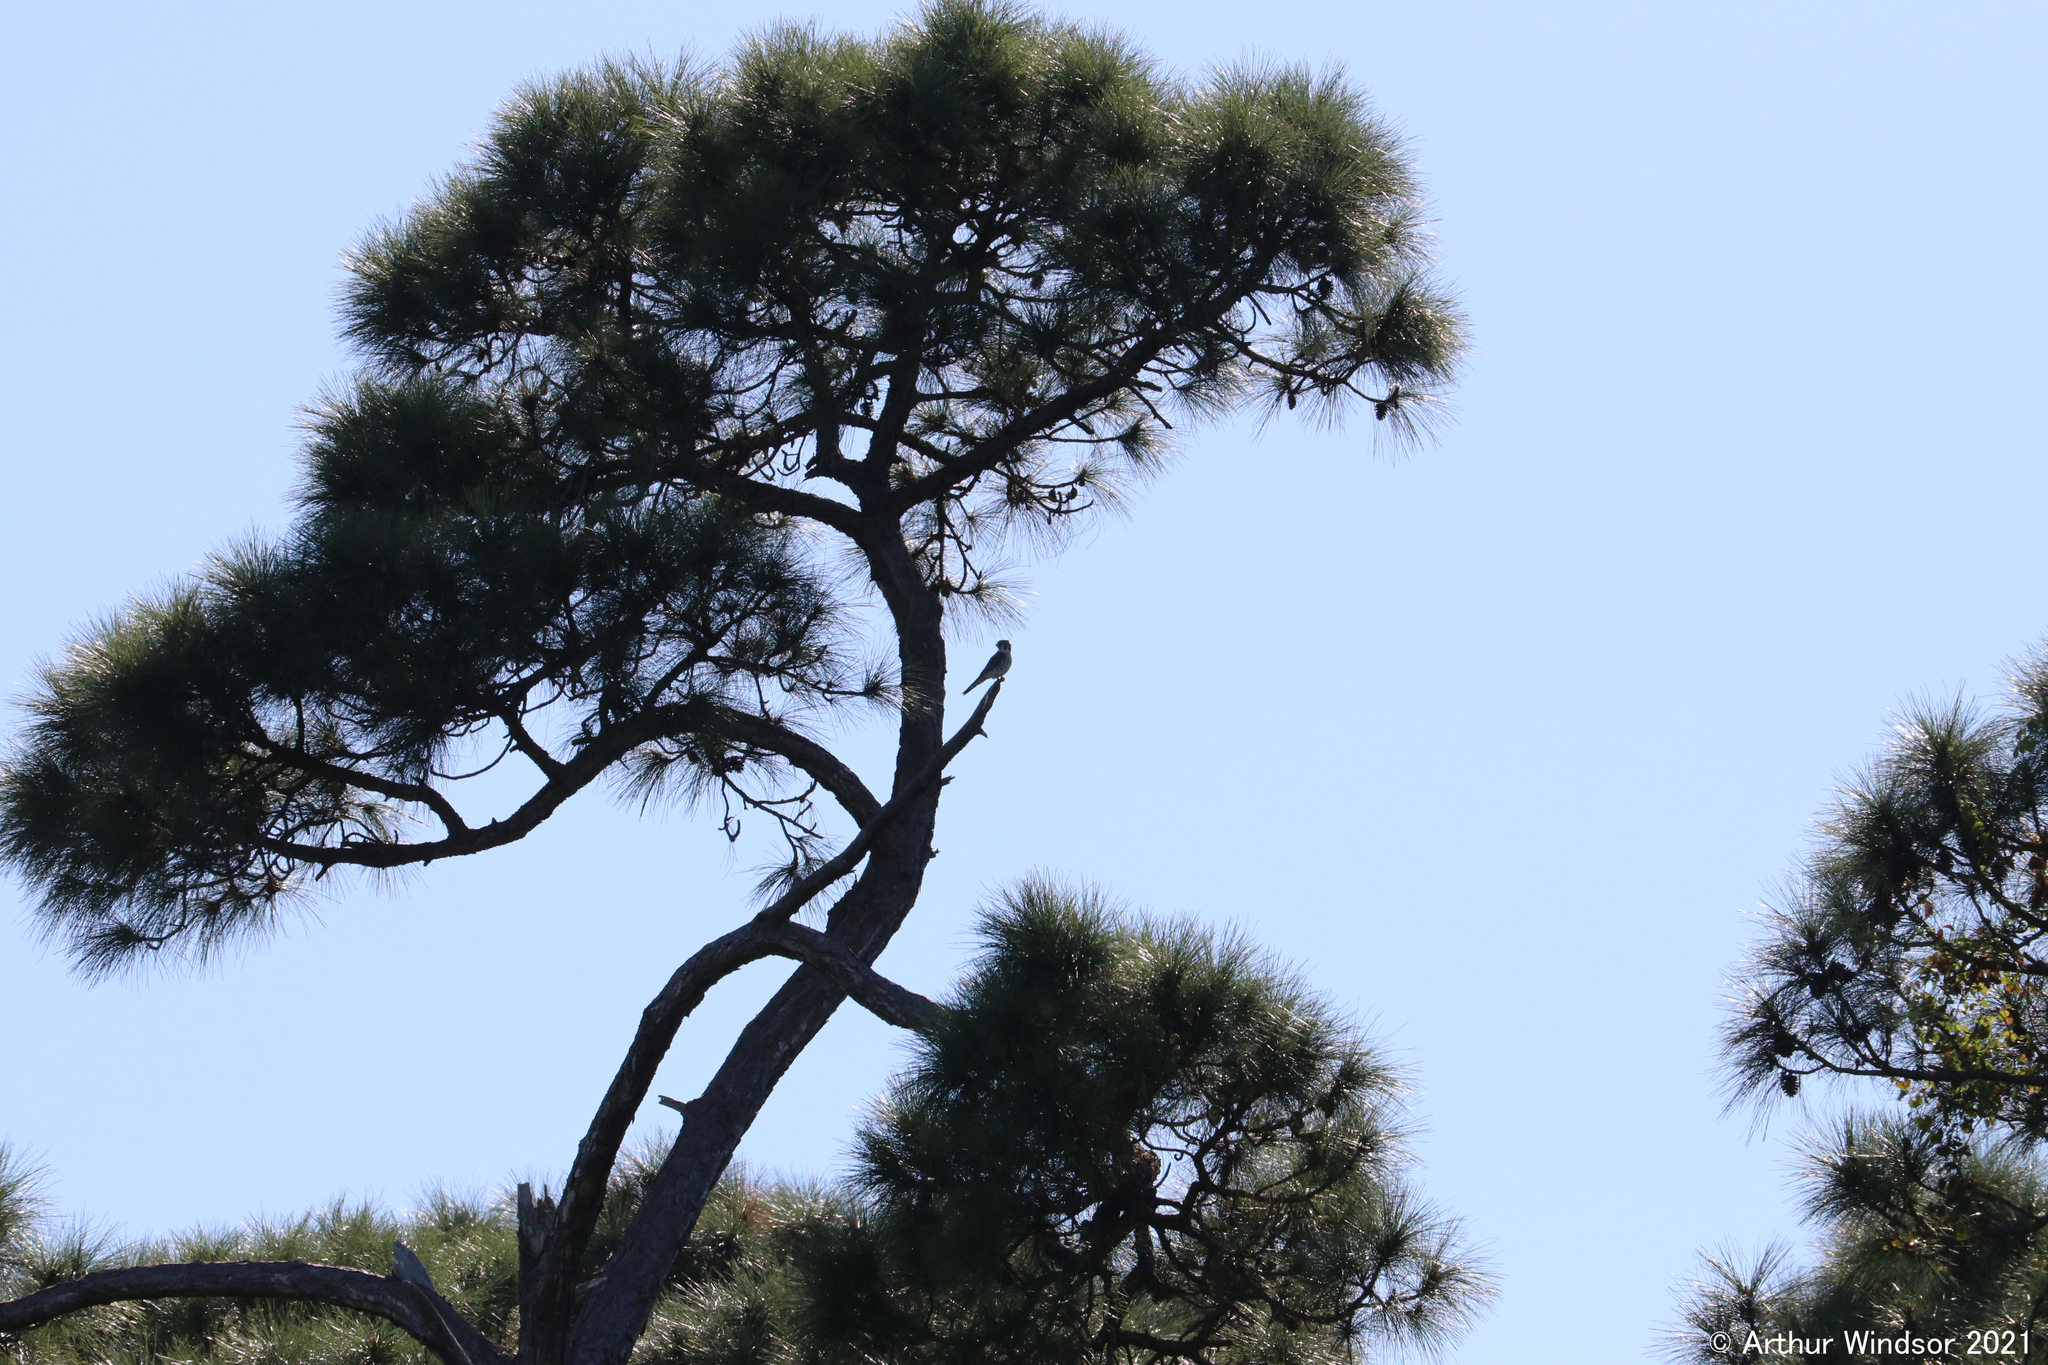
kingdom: Animalia
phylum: Chordata
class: Aves
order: Falconiformes
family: Falconidae
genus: Falco
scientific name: Falco sparverius
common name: American kestrel
